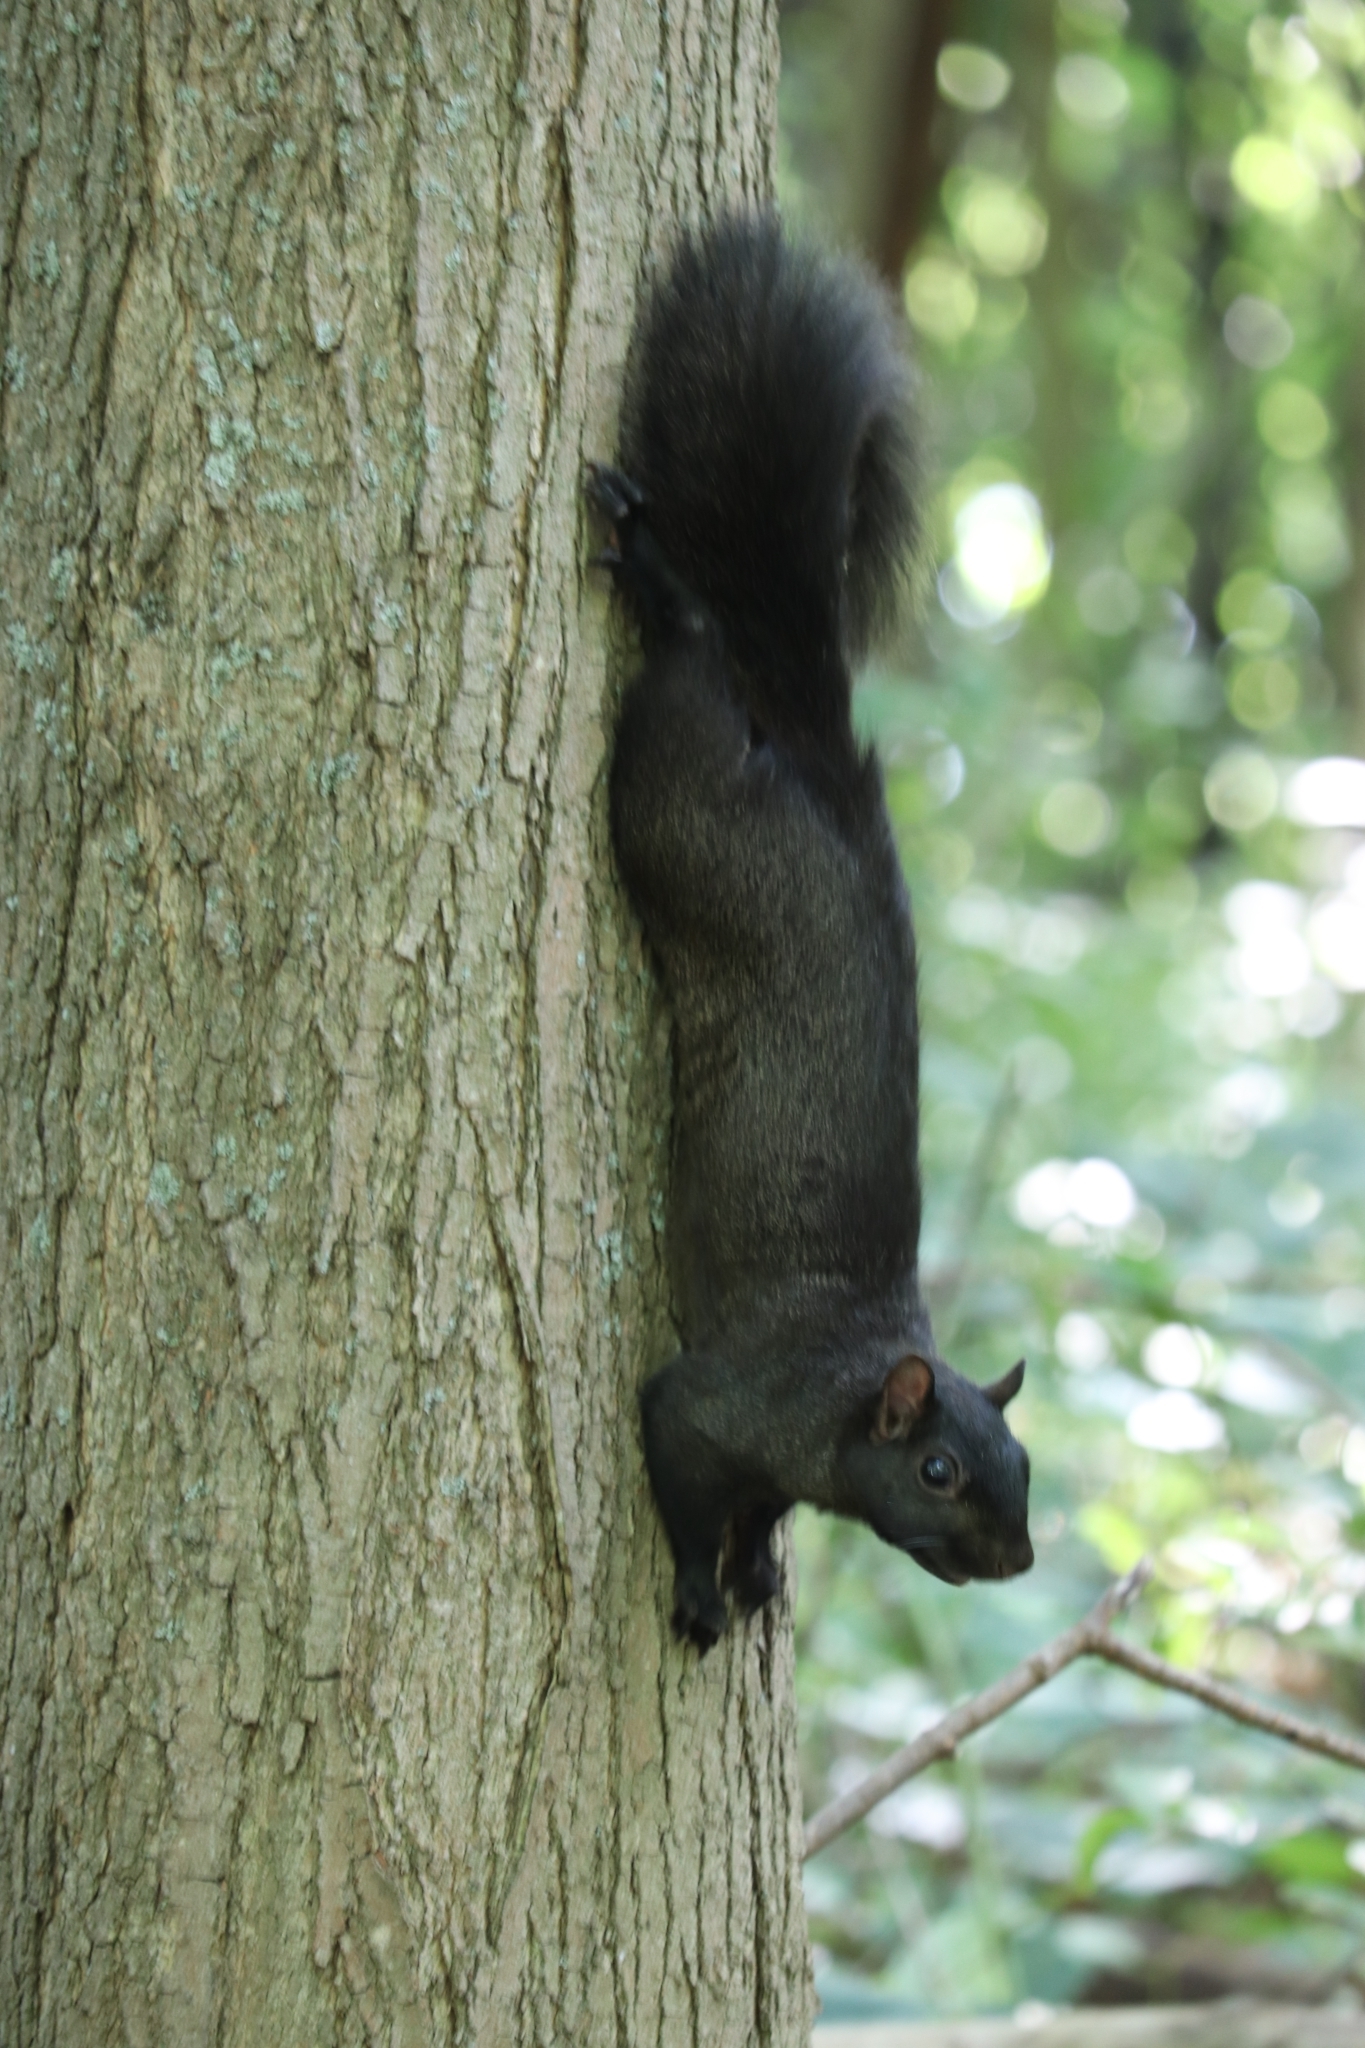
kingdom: Animalia
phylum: Chordata
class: Mammalia
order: Rodentia
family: Sciuridae
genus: Sciurus
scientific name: Sciurus carolinensis
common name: Eastern gray squirrel
